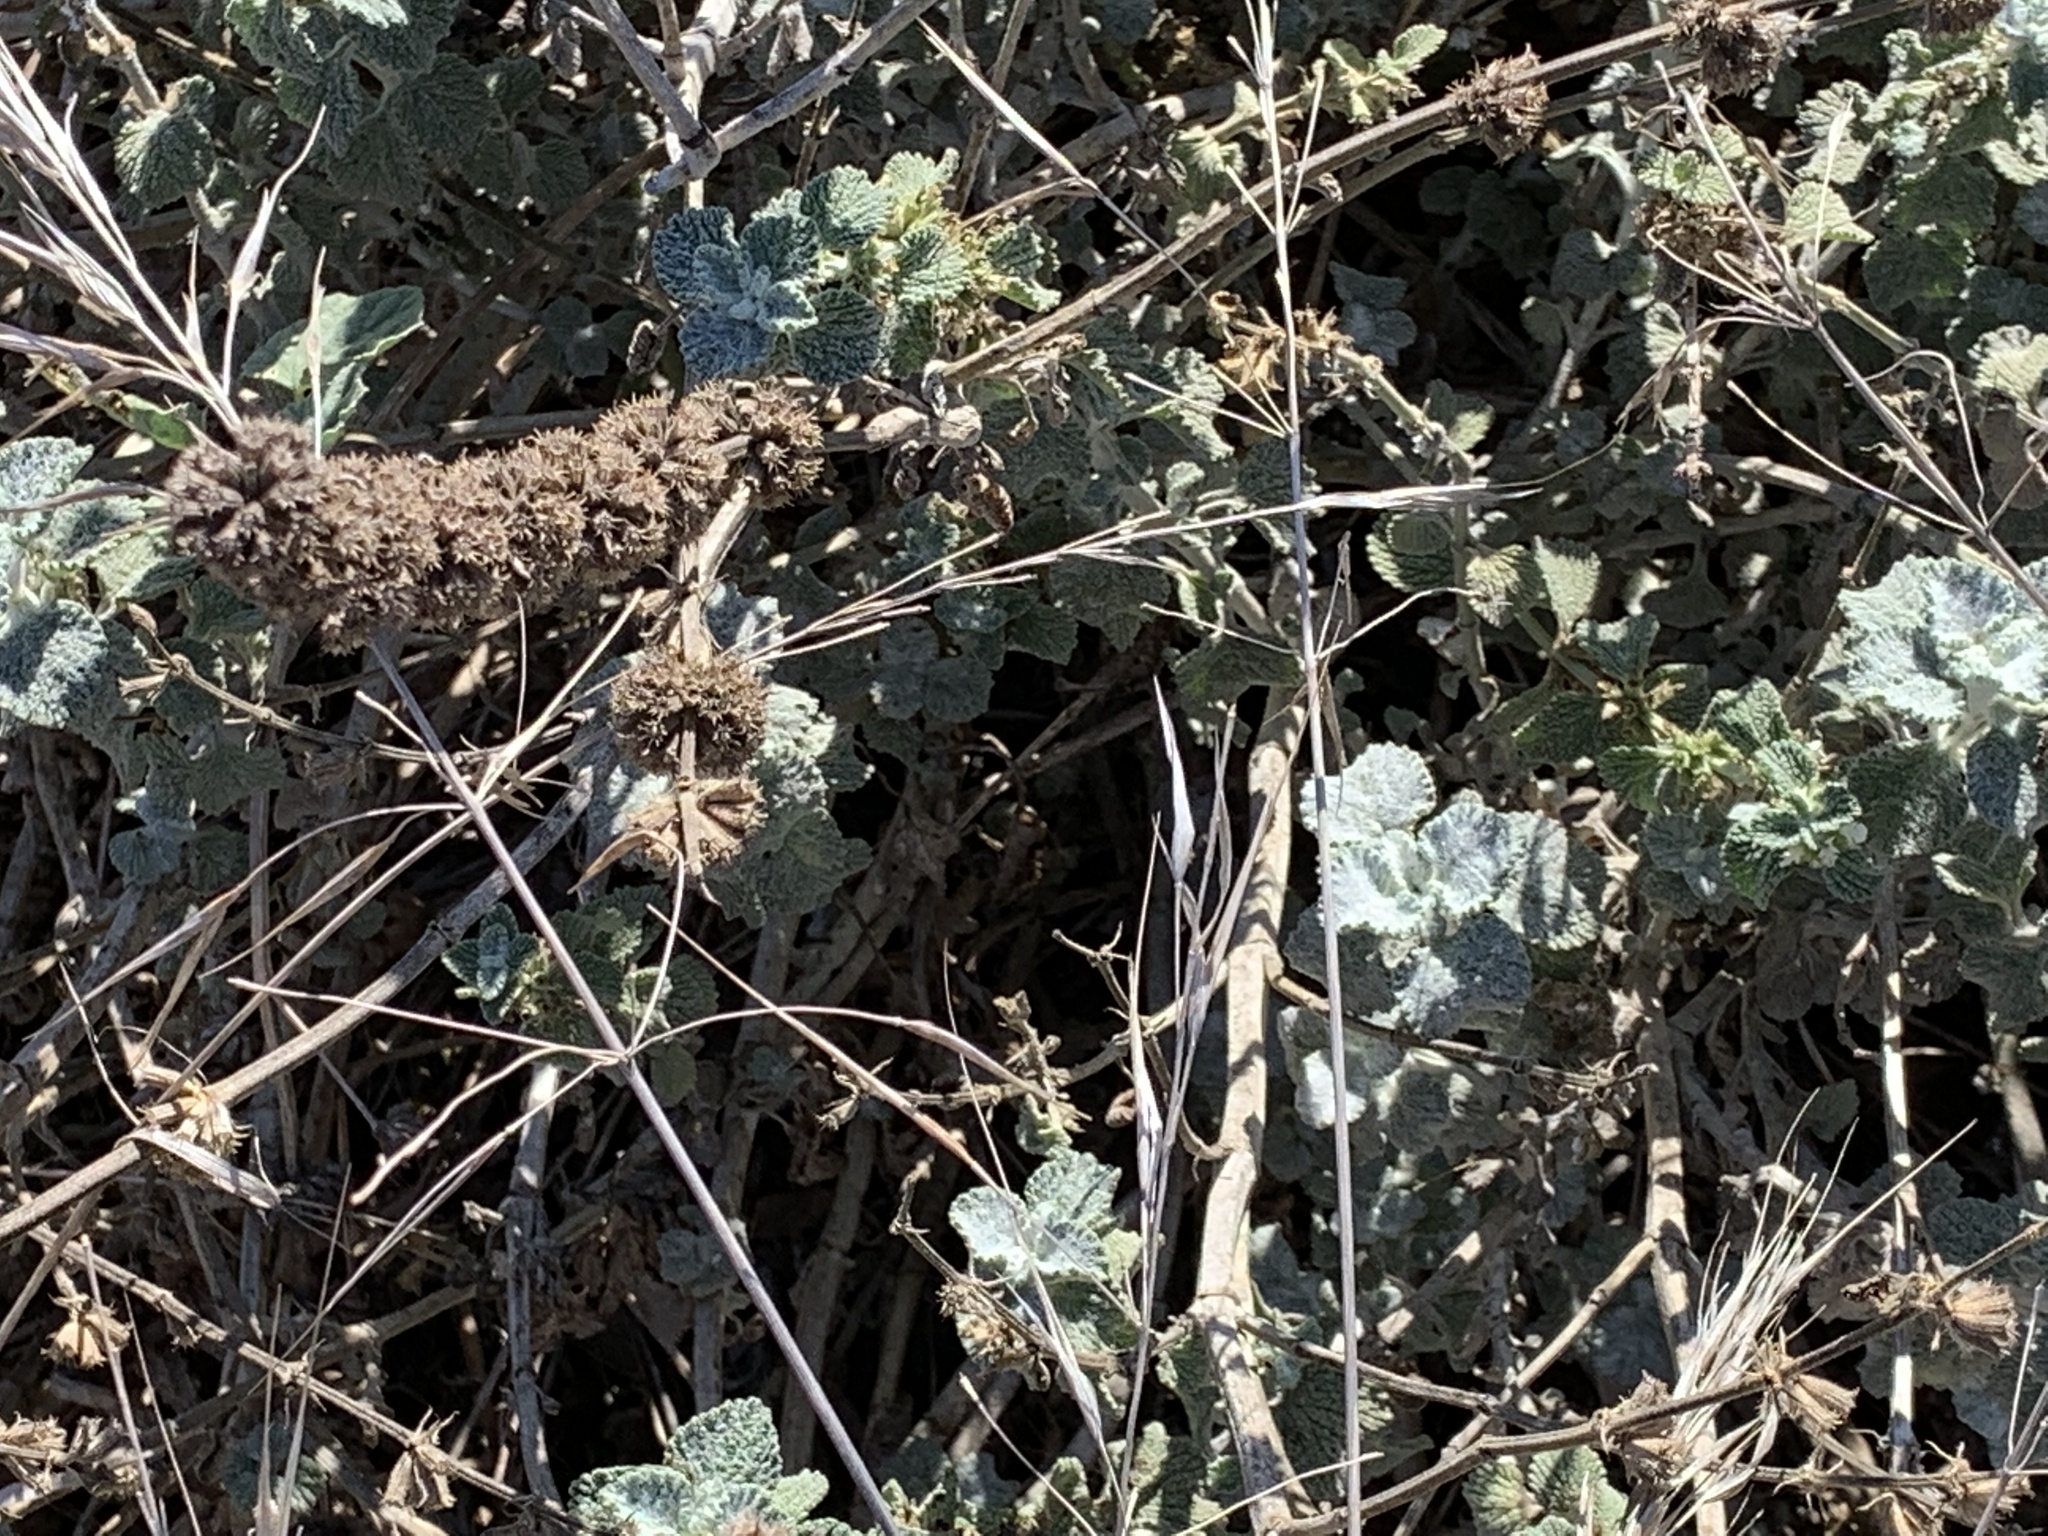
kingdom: Plantae
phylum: Tracheophyta
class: Magnoliopsida
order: Lamiales
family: Lamiaceae
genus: Marrubium
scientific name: Marrubium vulgare
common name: Horehound
